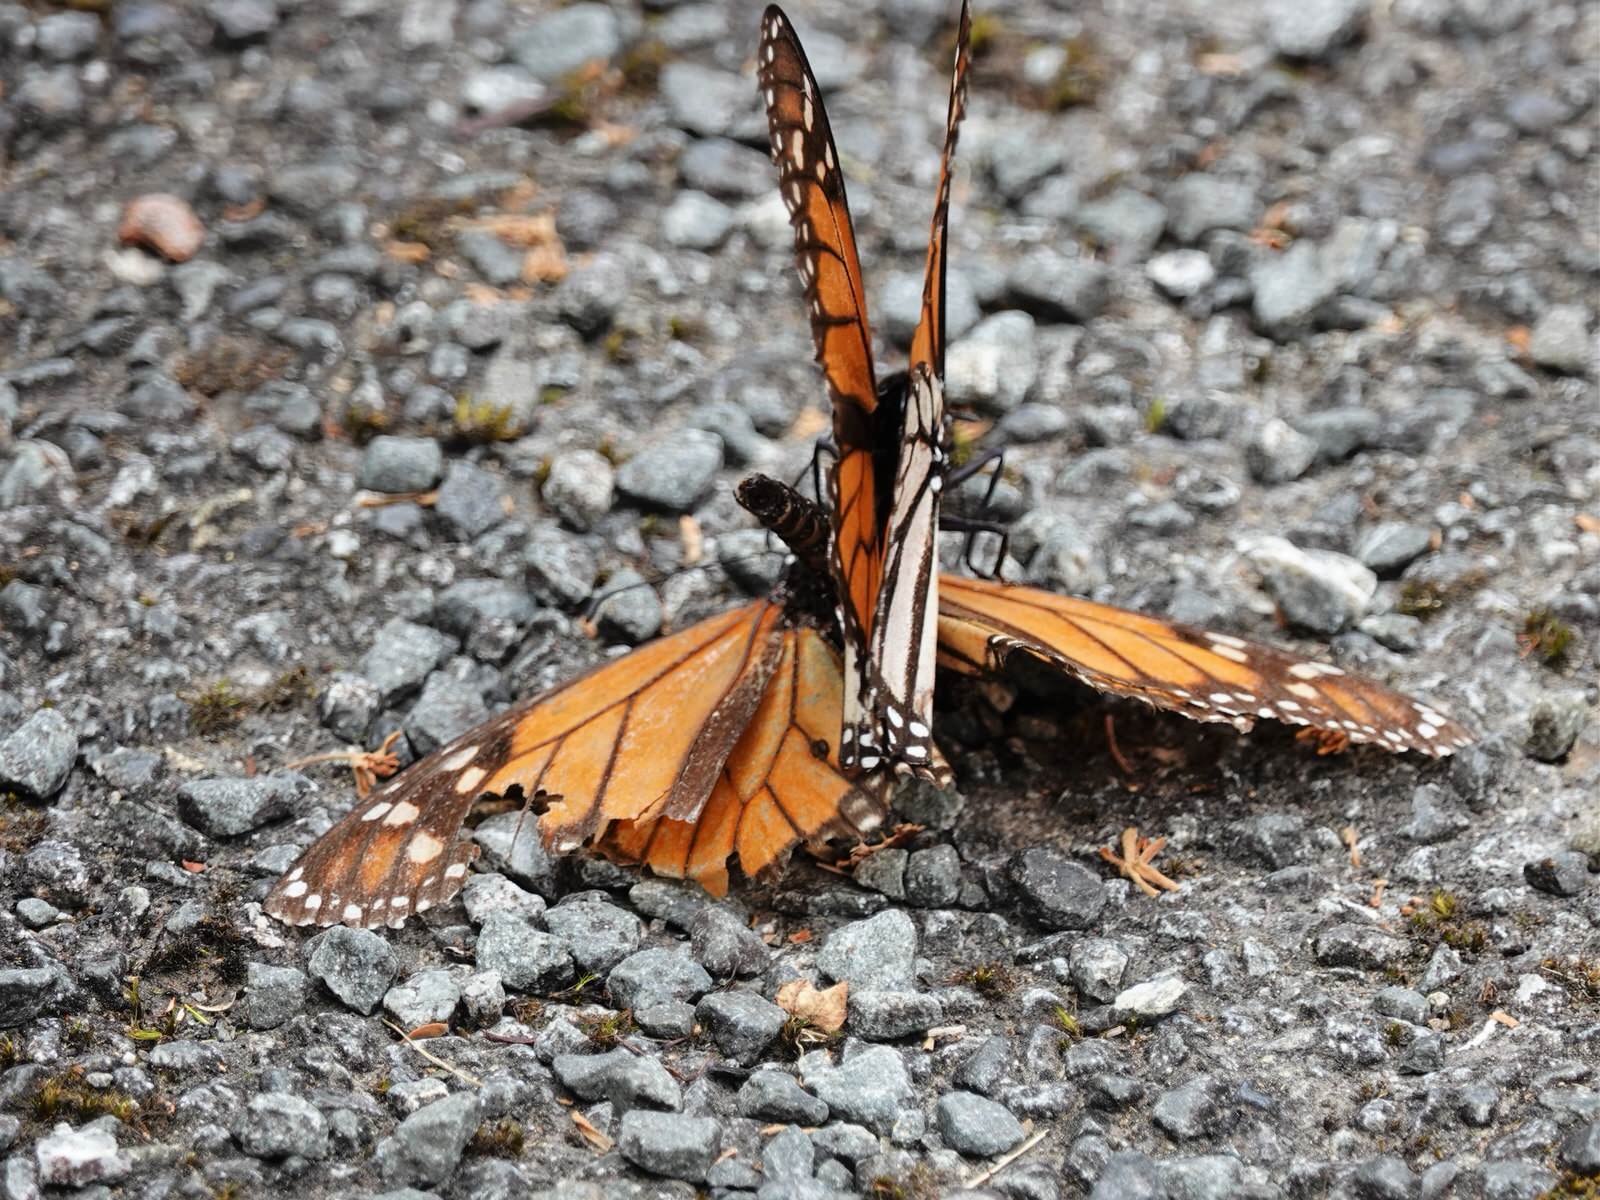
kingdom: Animalia
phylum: Arthropoda
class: Insecta
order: Lepidoptera
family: Nymphalidae
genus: Danaus
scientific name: Danaus plexippus
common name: Monarch
